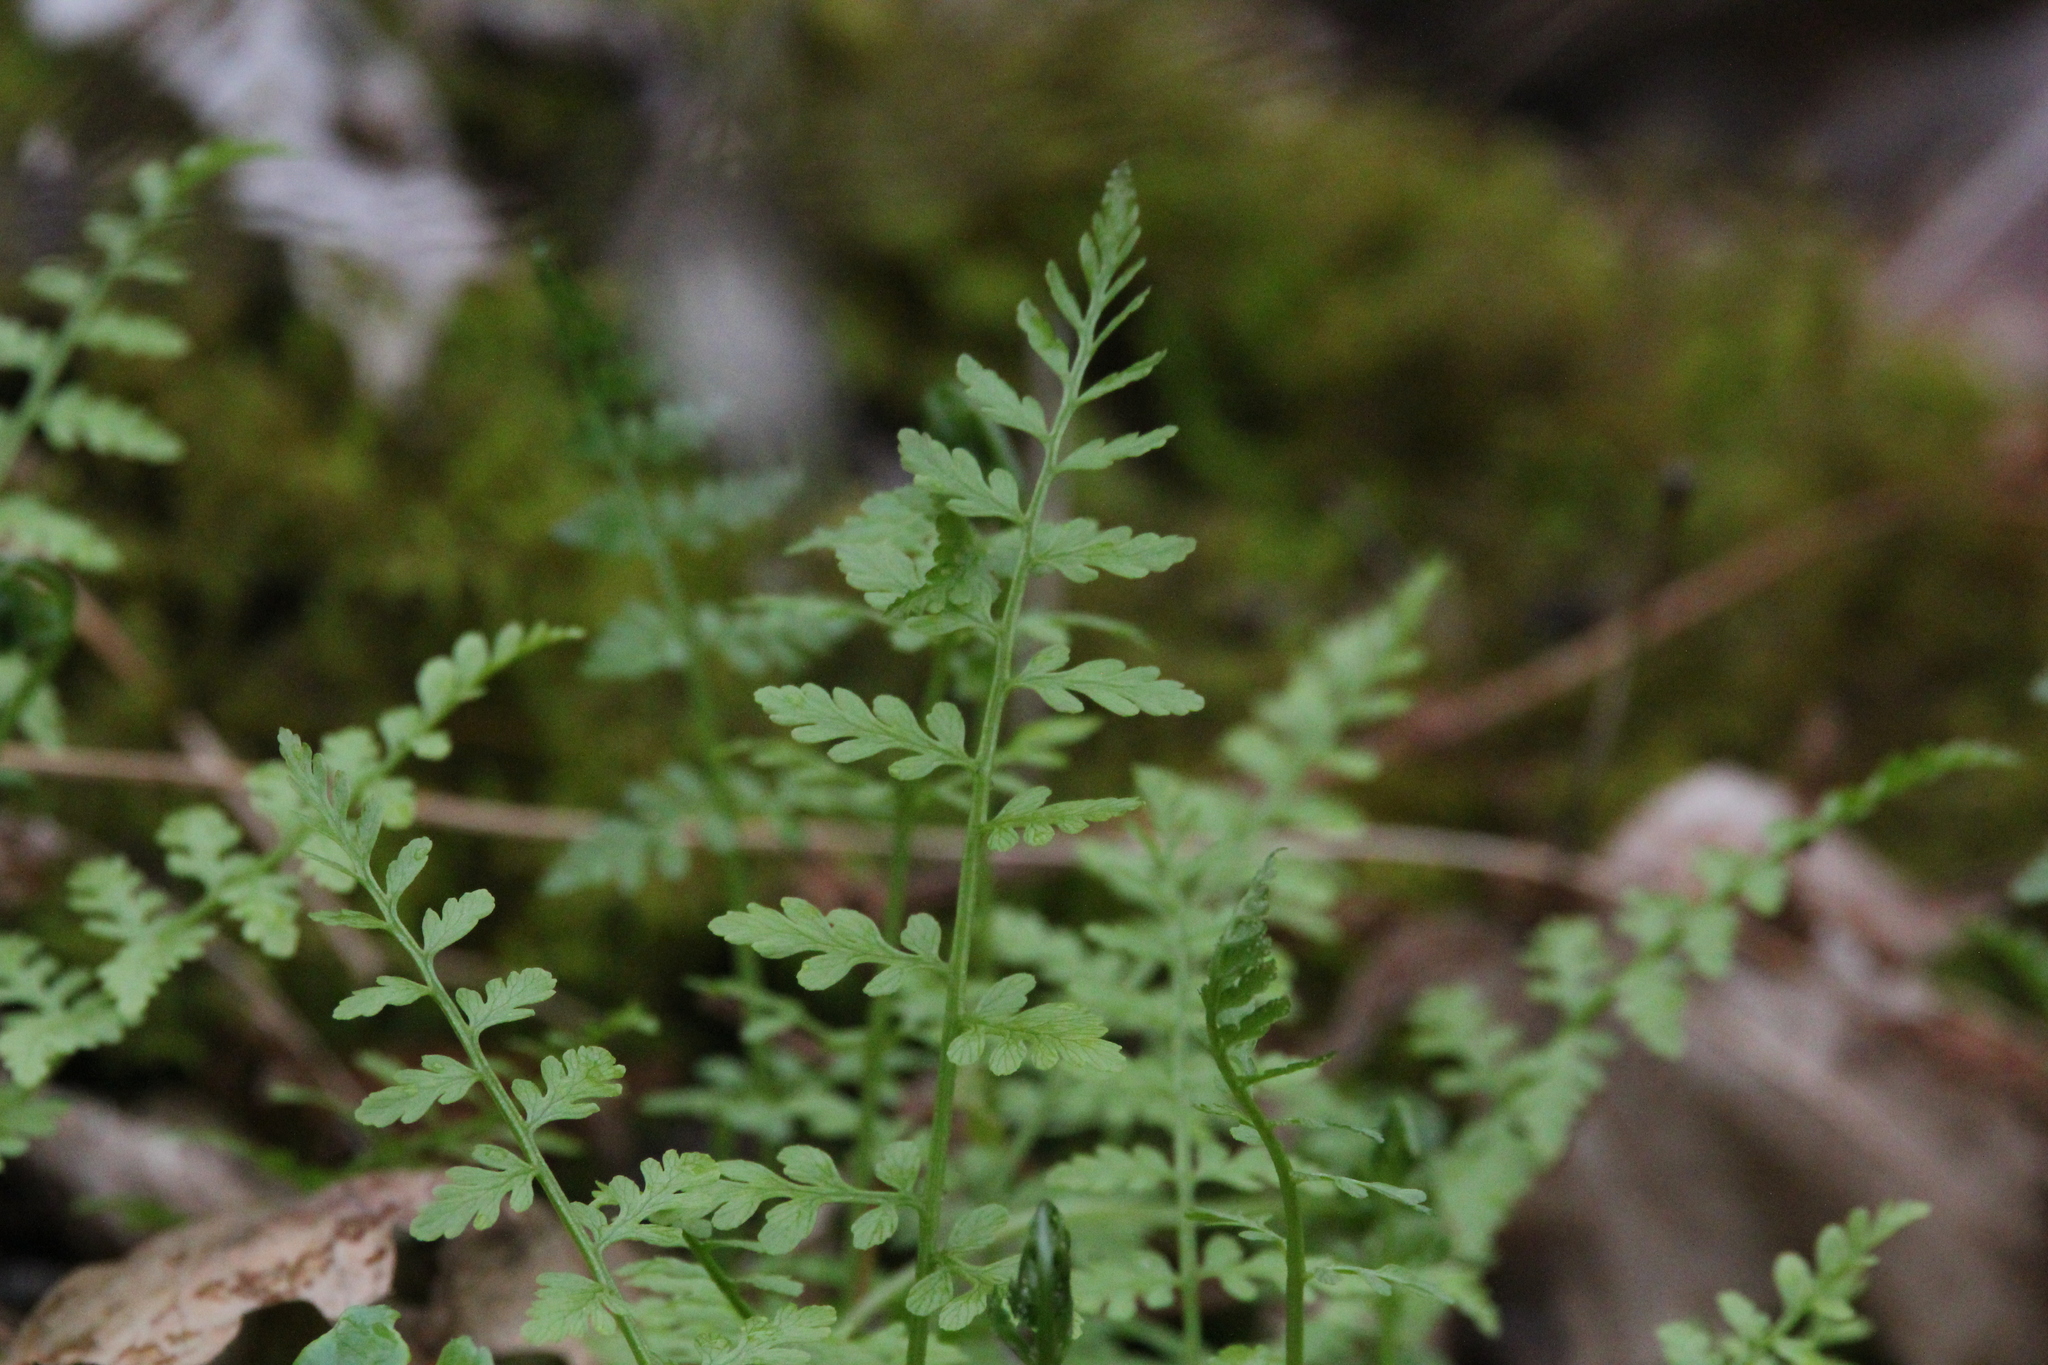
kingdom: Plantae
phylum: Tracheophyta
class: Polypodiopsida
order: Polypodiales
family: Cystopteridaceae
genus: Cystopteris
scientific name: Cystopteris tenuis
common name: Mackay's brittle fern
